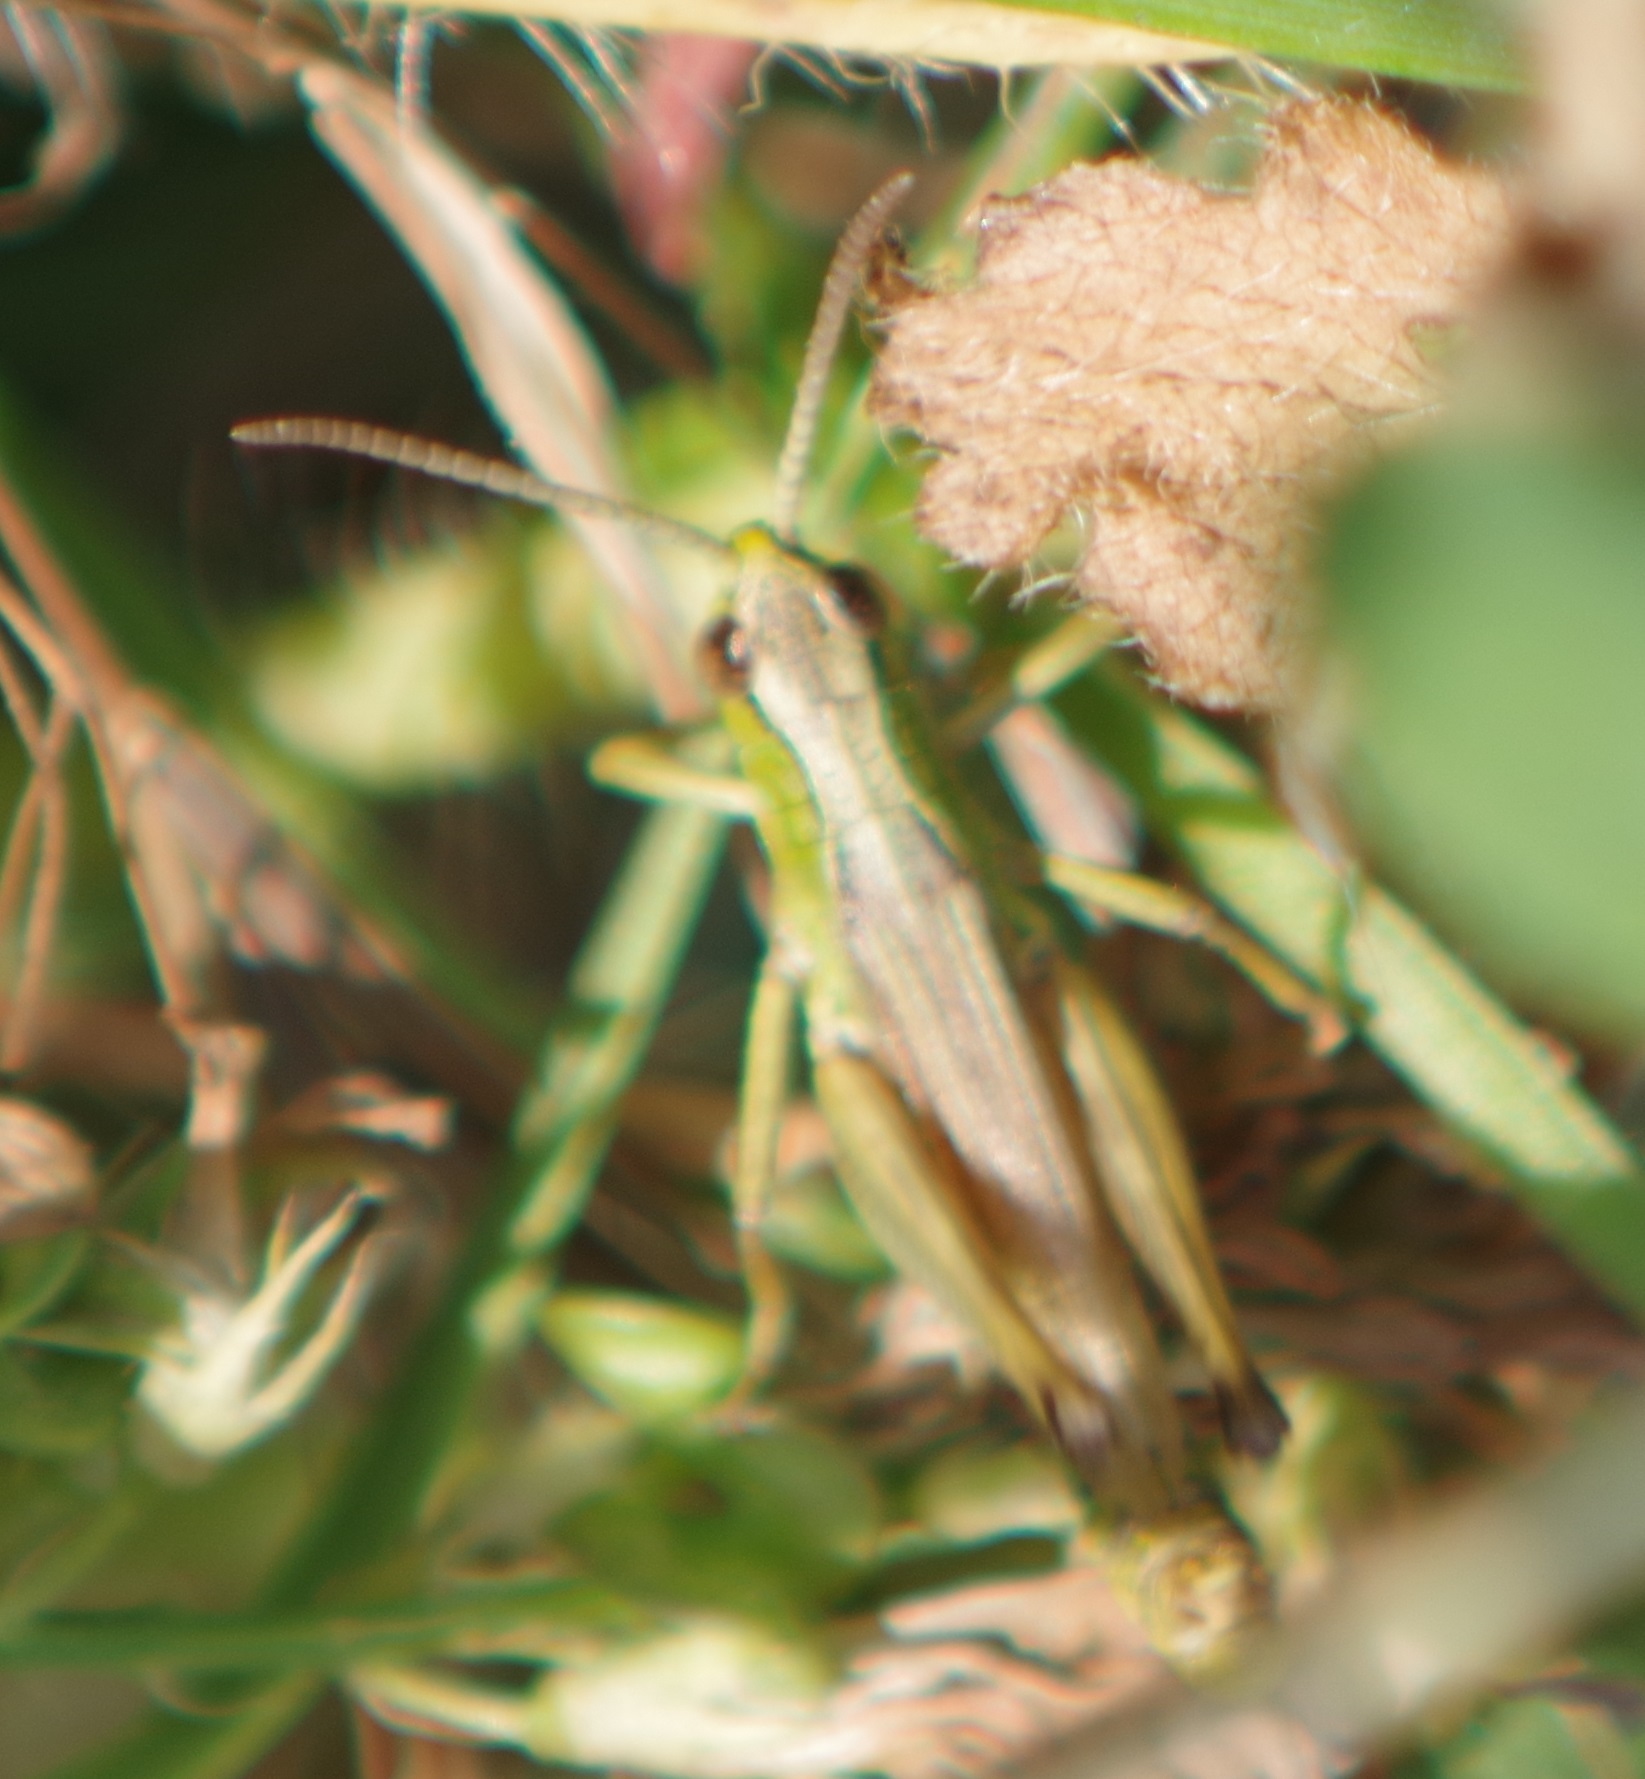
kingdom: Animalia
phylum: Arthropoda
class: Insecta
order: Orthoptera
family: Acrididae
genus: Pseudochorthippus
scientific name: Pseudochorthippus parallelus
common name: Meadow grasshopper
